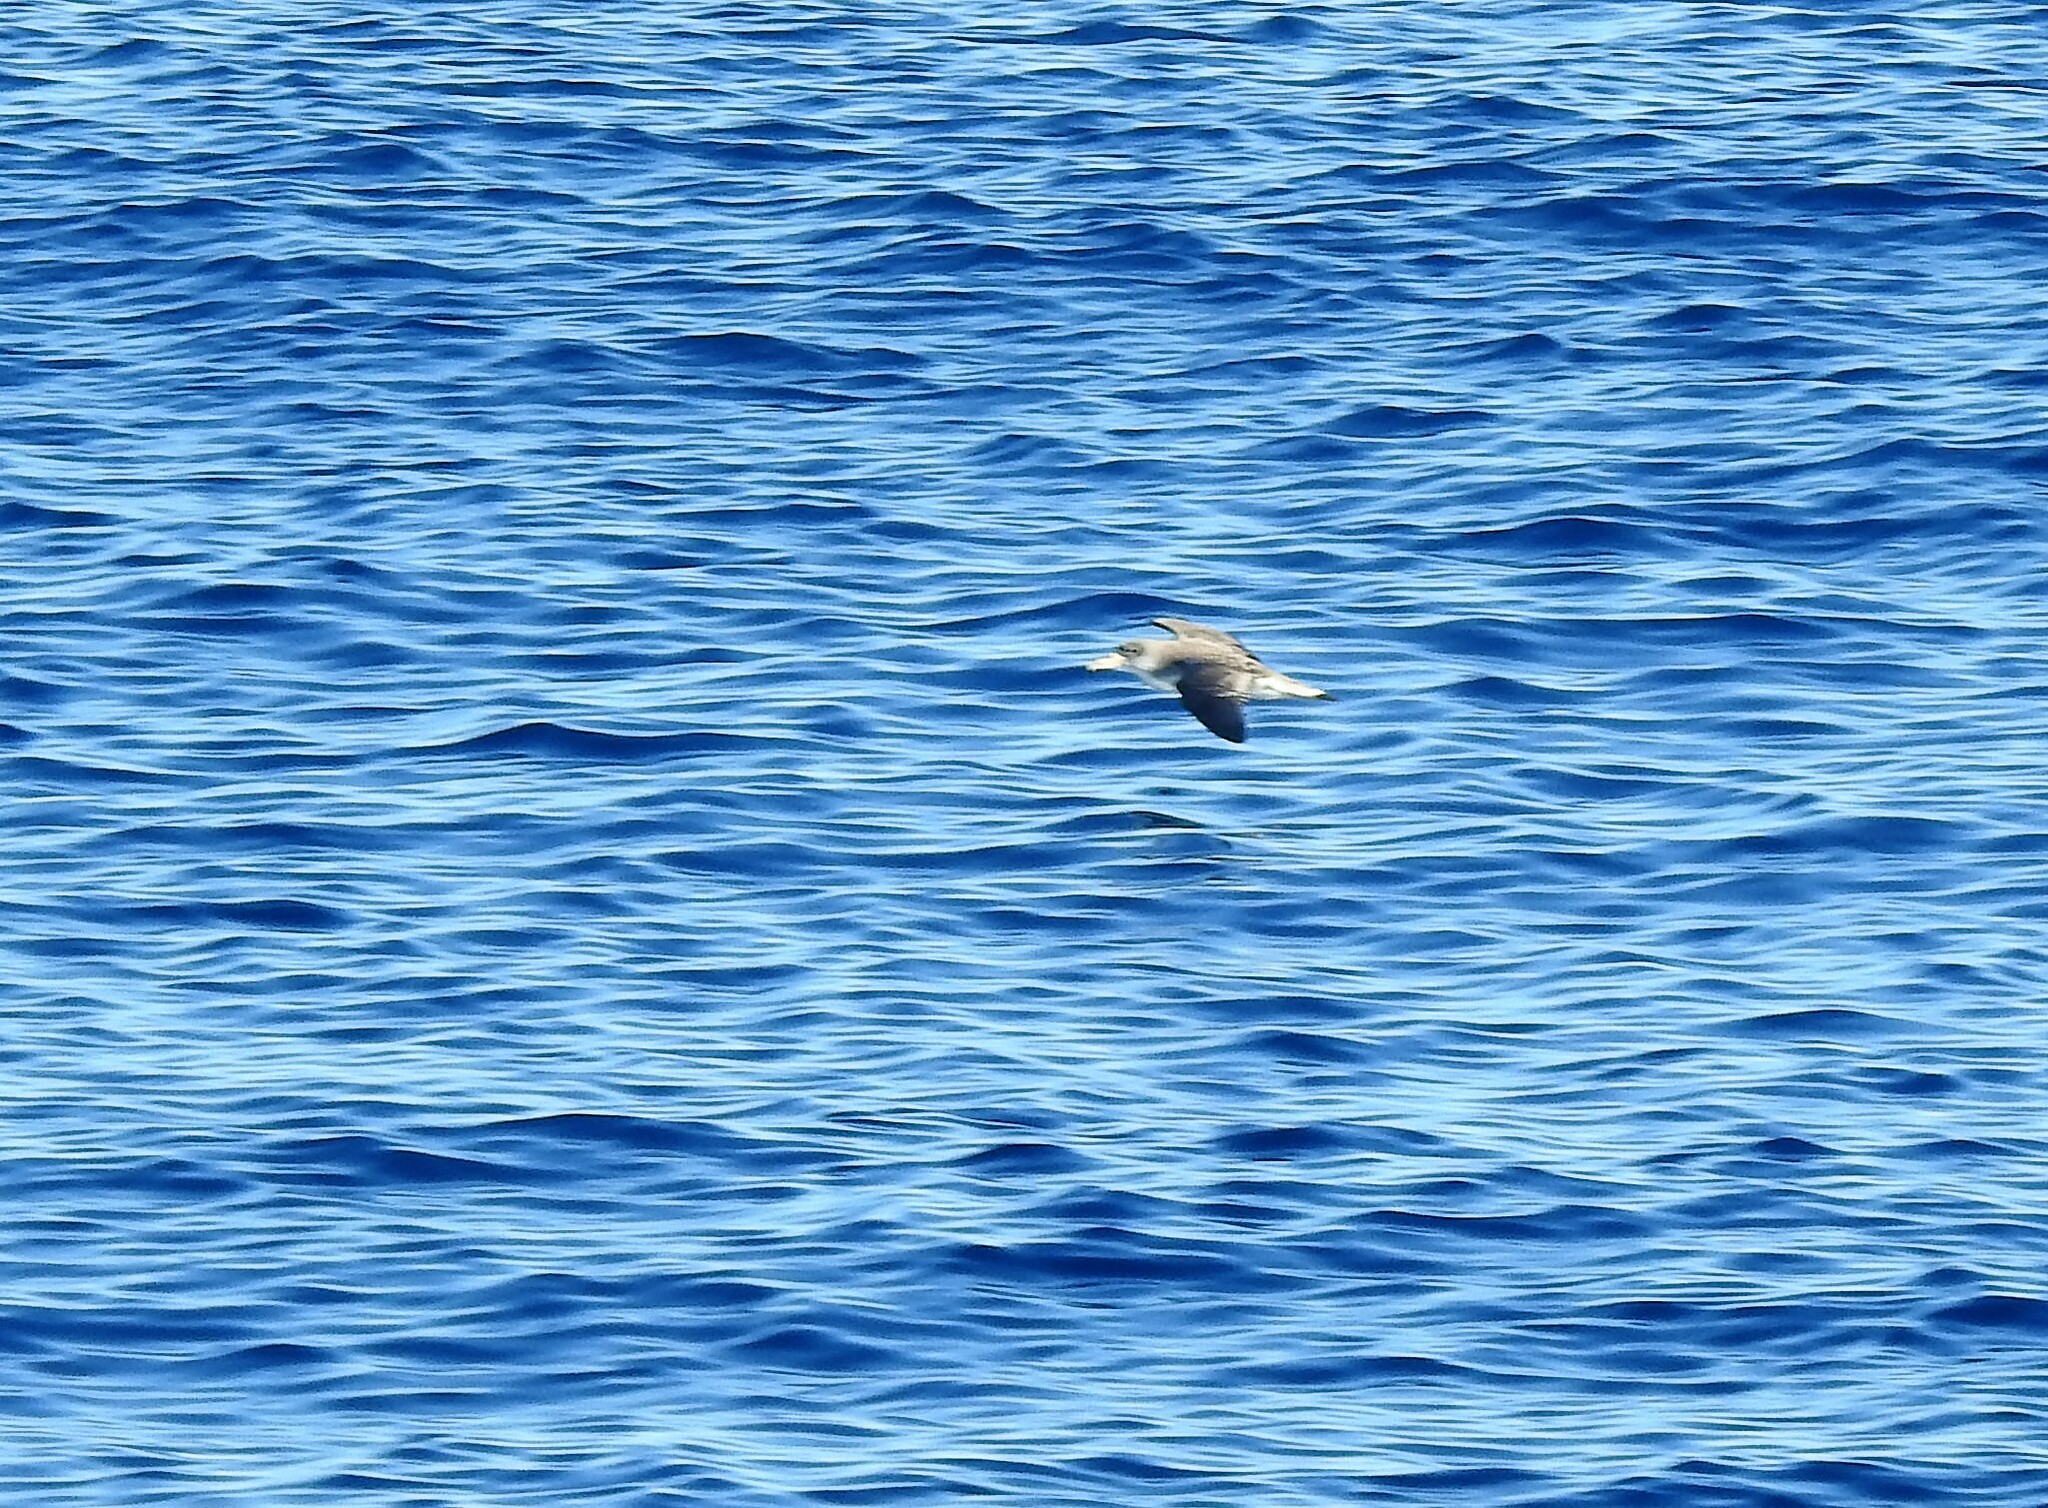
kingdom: Animalia
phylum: Chordata
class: Aves
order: Procellariiformes
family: Procellariidae
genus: Calonectris
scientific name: Calonectris diomedea
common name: Cory's shearwater
